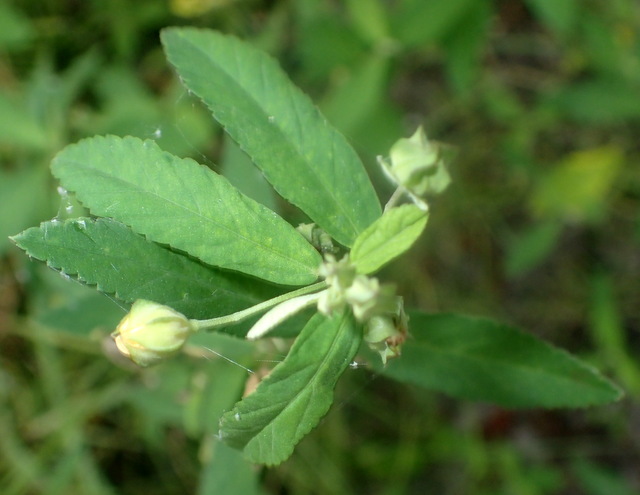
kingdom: Plantae
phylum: Tracheophyta
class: Magnoliopsida
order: Malvales
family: Malvaceae
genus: Sida
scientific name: Sida rhombifolia
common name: Queensland-hemp
